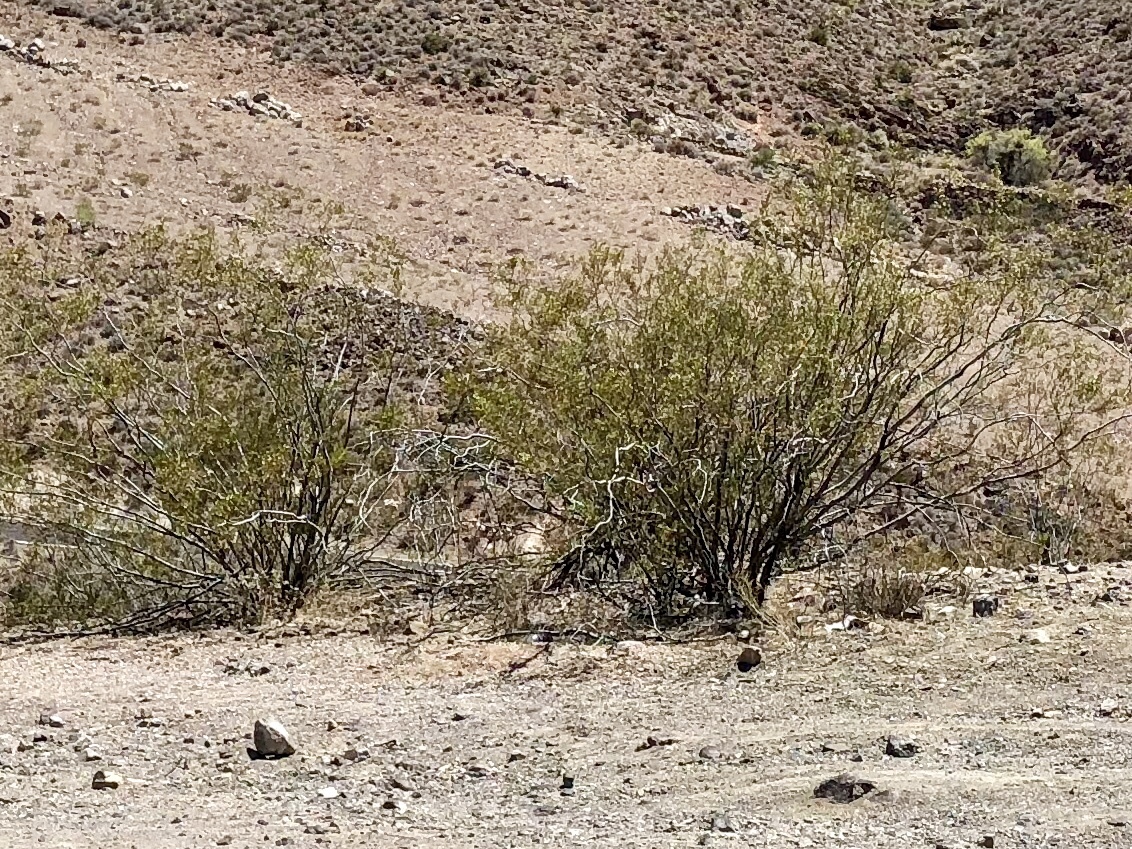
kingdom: Plantae
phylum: Tracheophyta
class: Magnoliopsida
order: Zygophyllales
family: Zygophyllaceae
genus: Larrea
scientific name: Larrea tridentata
